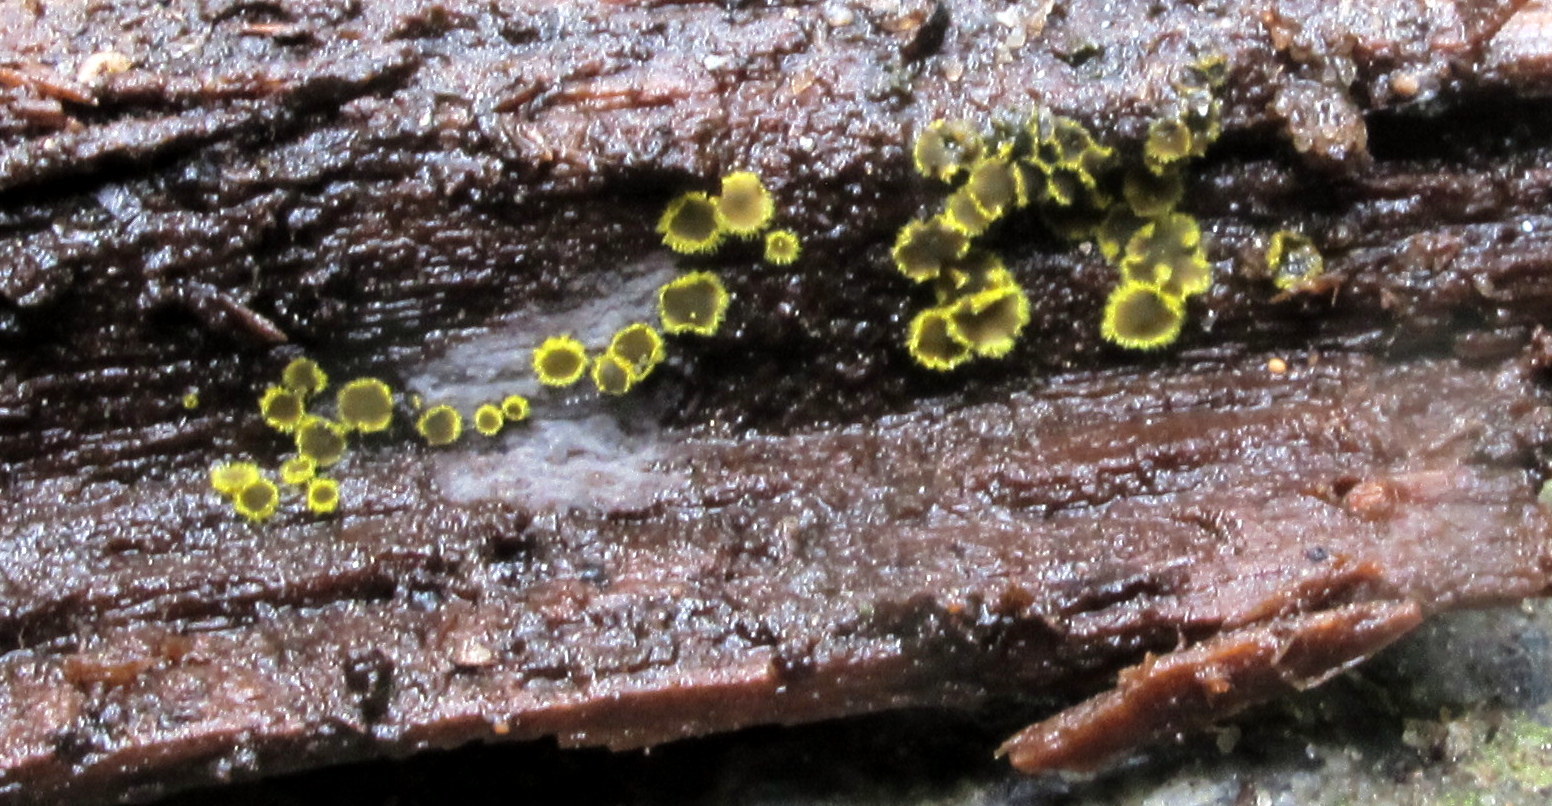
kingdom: Fungi
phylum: Ascomycota
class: Leotiomycetes
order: Helotiales
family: Amicodiscaceae
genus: Amicodisca
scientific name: Amicodisca svrcekii
